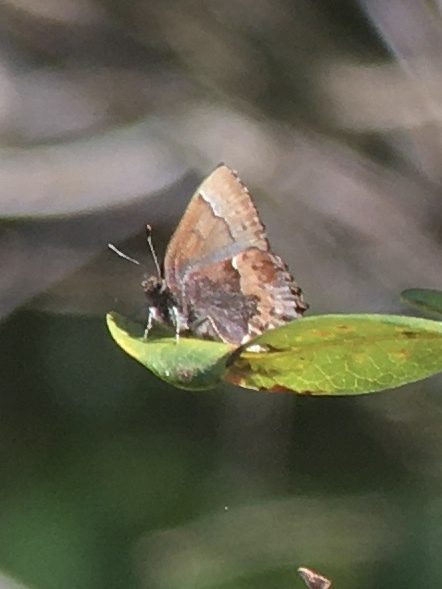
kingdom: Animalia
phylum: Arthropoda
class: Insecta
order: Lepidoptera
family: Lycaenidae
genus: Incisalia
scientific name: Incisalia henrici
